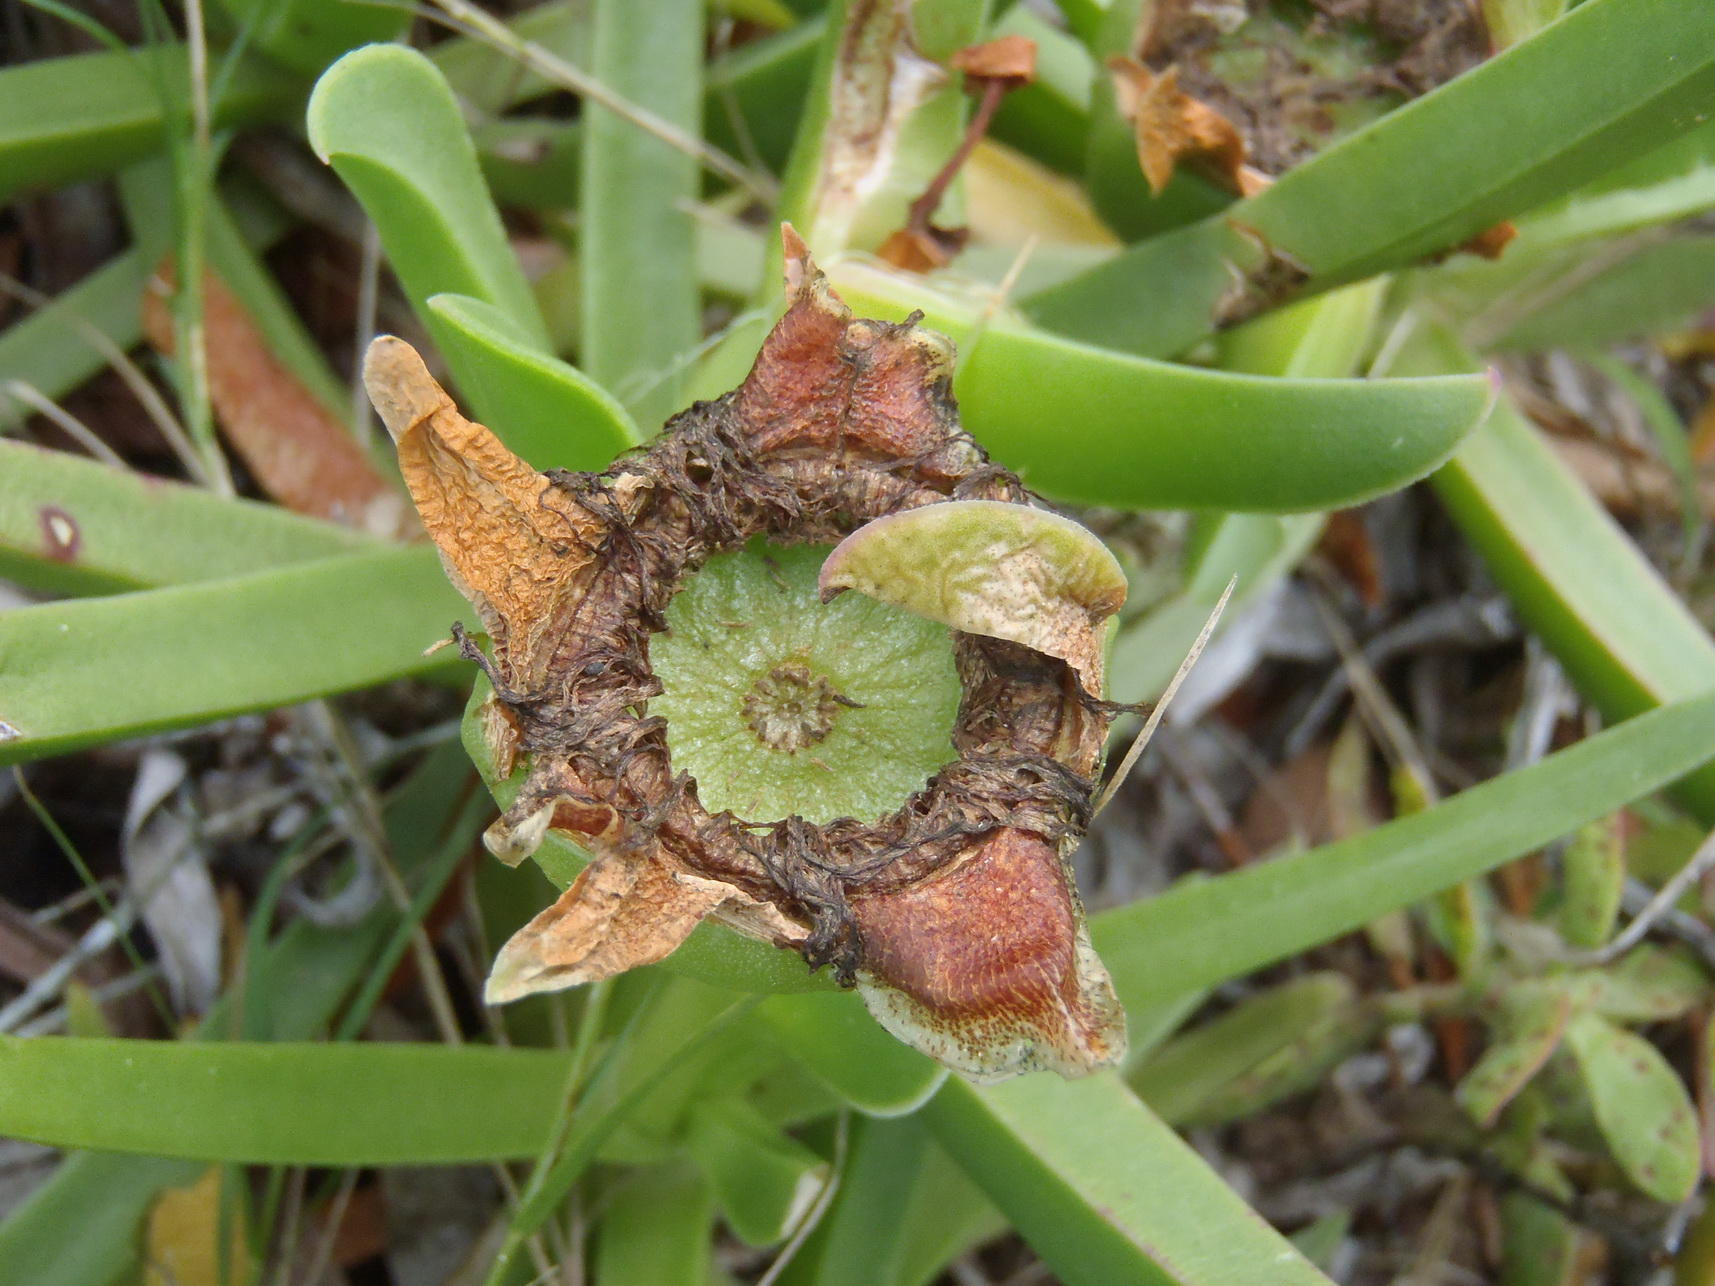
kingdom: Plantae
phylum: Tracheophyta
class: Magnoliopsida
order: Caryophyllales
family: Aizoaceae
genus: Carpobrotus
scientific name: Carpobrotus deliciosus
